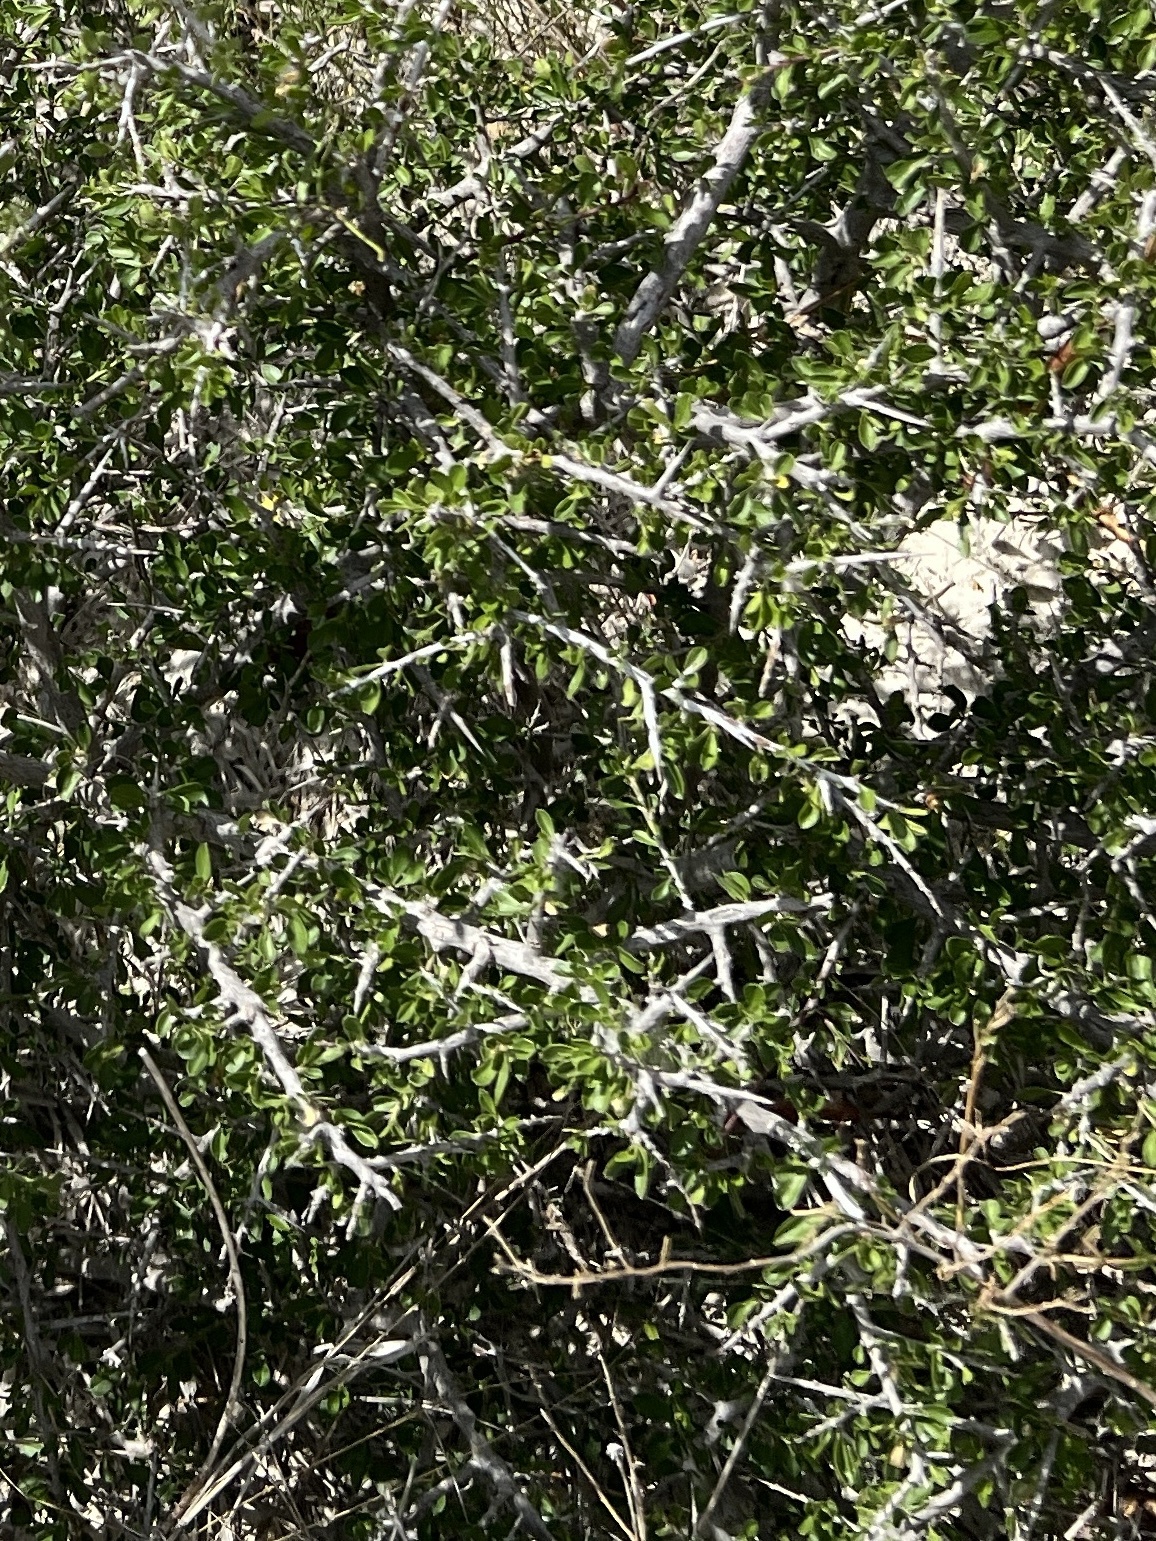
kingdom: Plantae
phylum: Tracheophyta
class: Magnoliopsida
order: Rosales
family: Rhamnaceae
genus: Condalia
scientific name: Condalia viridis
